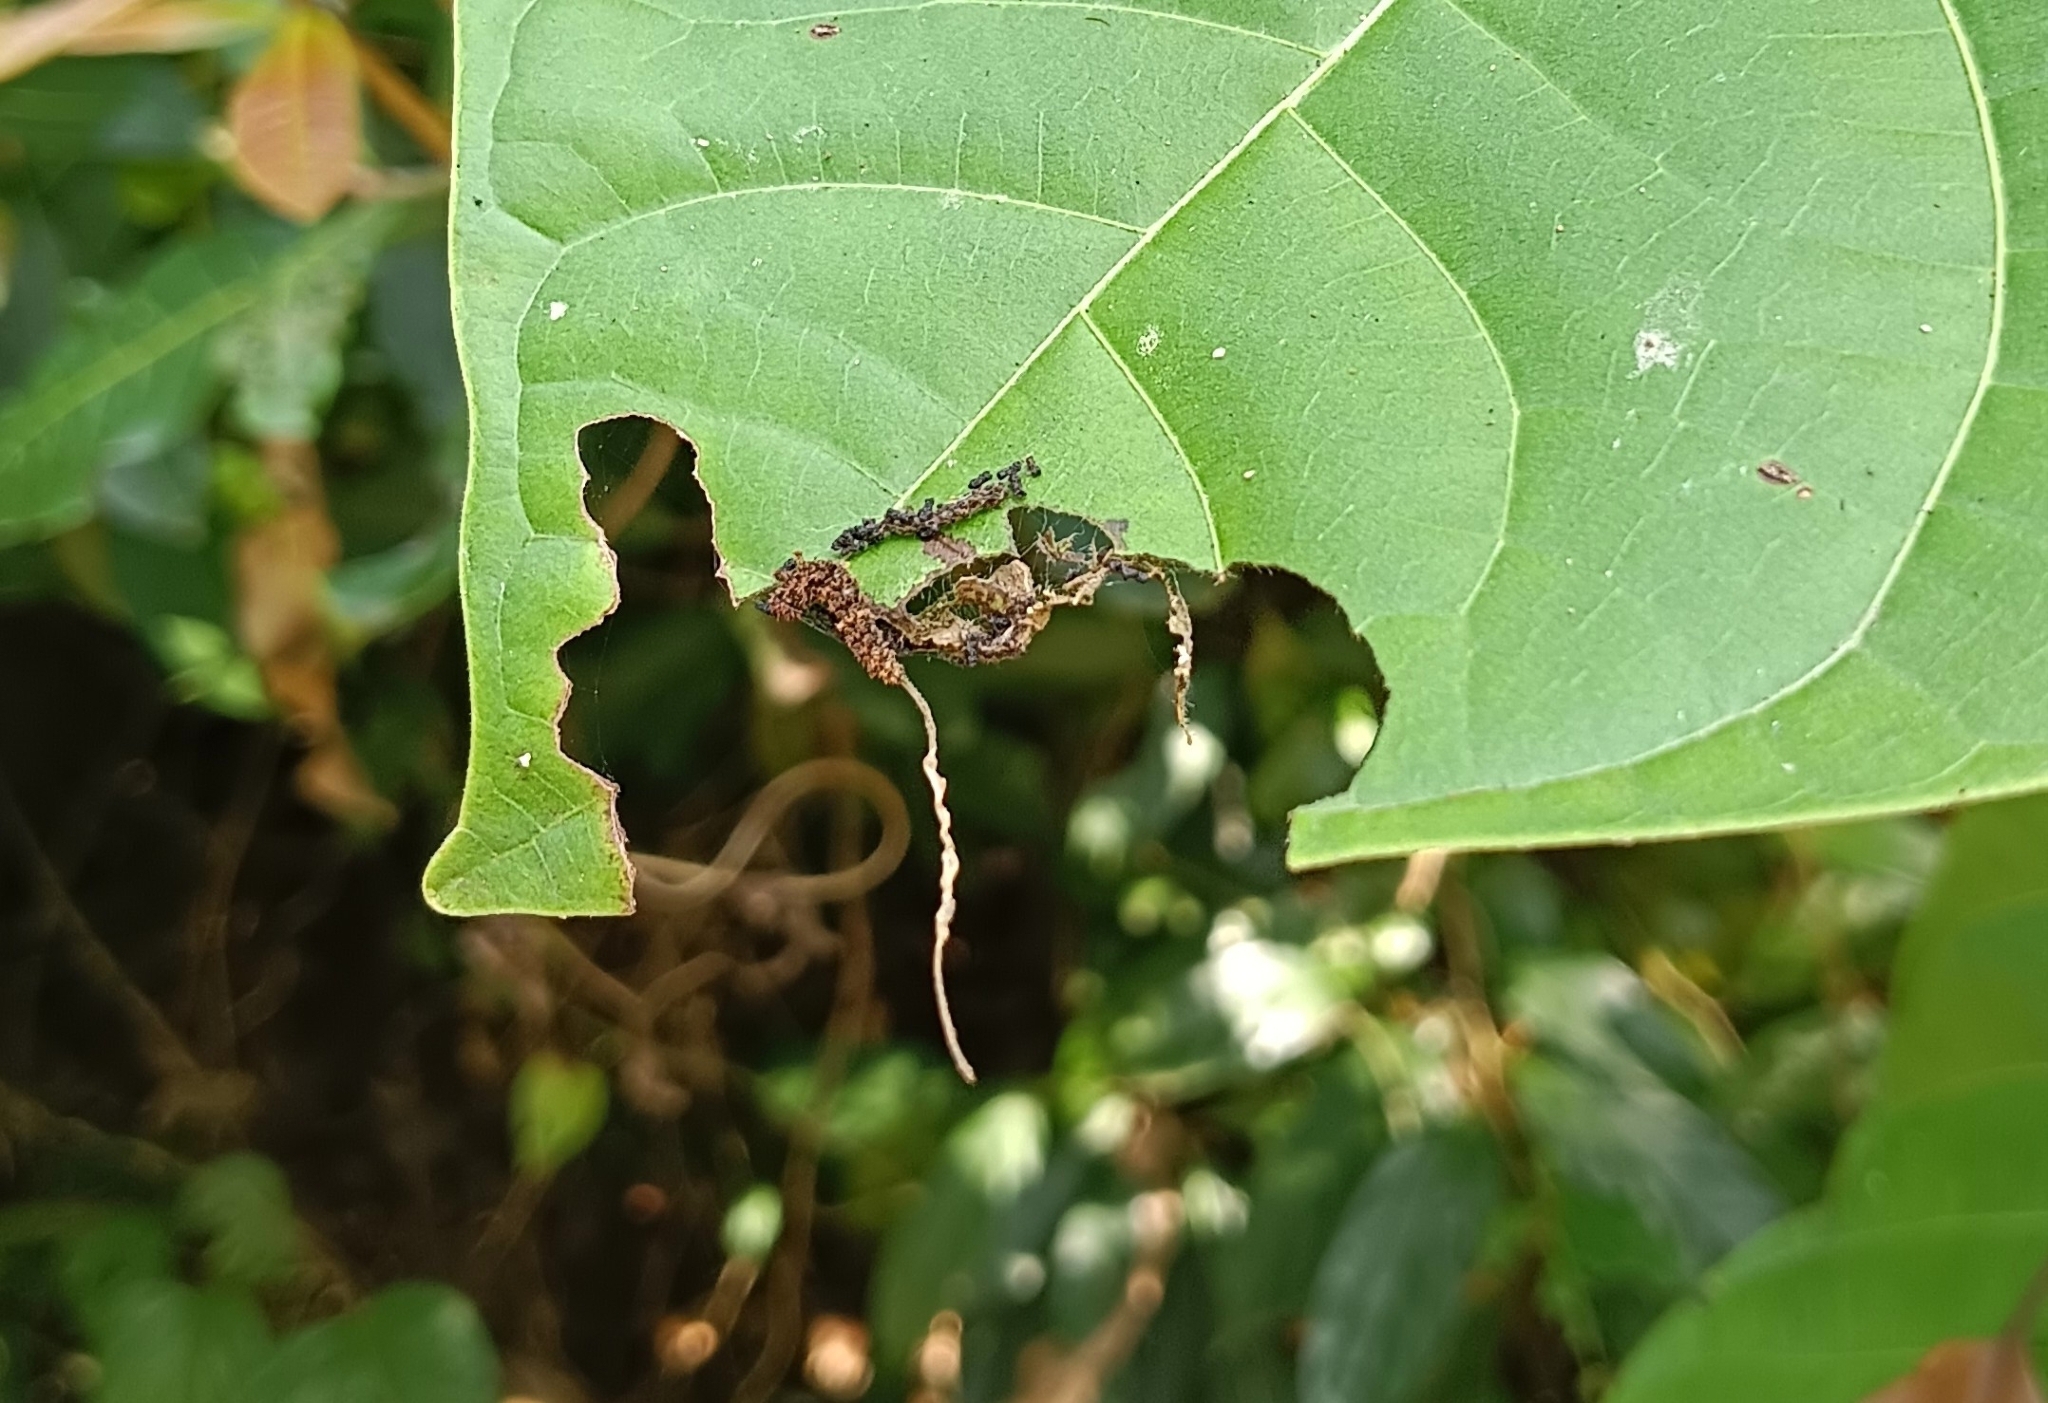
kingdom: Animalia
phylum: Arthropoda
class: Insecta
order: Lepidoptera
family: Nymphalidae
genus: Limenitis
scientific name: Limenitis Moduza procris
